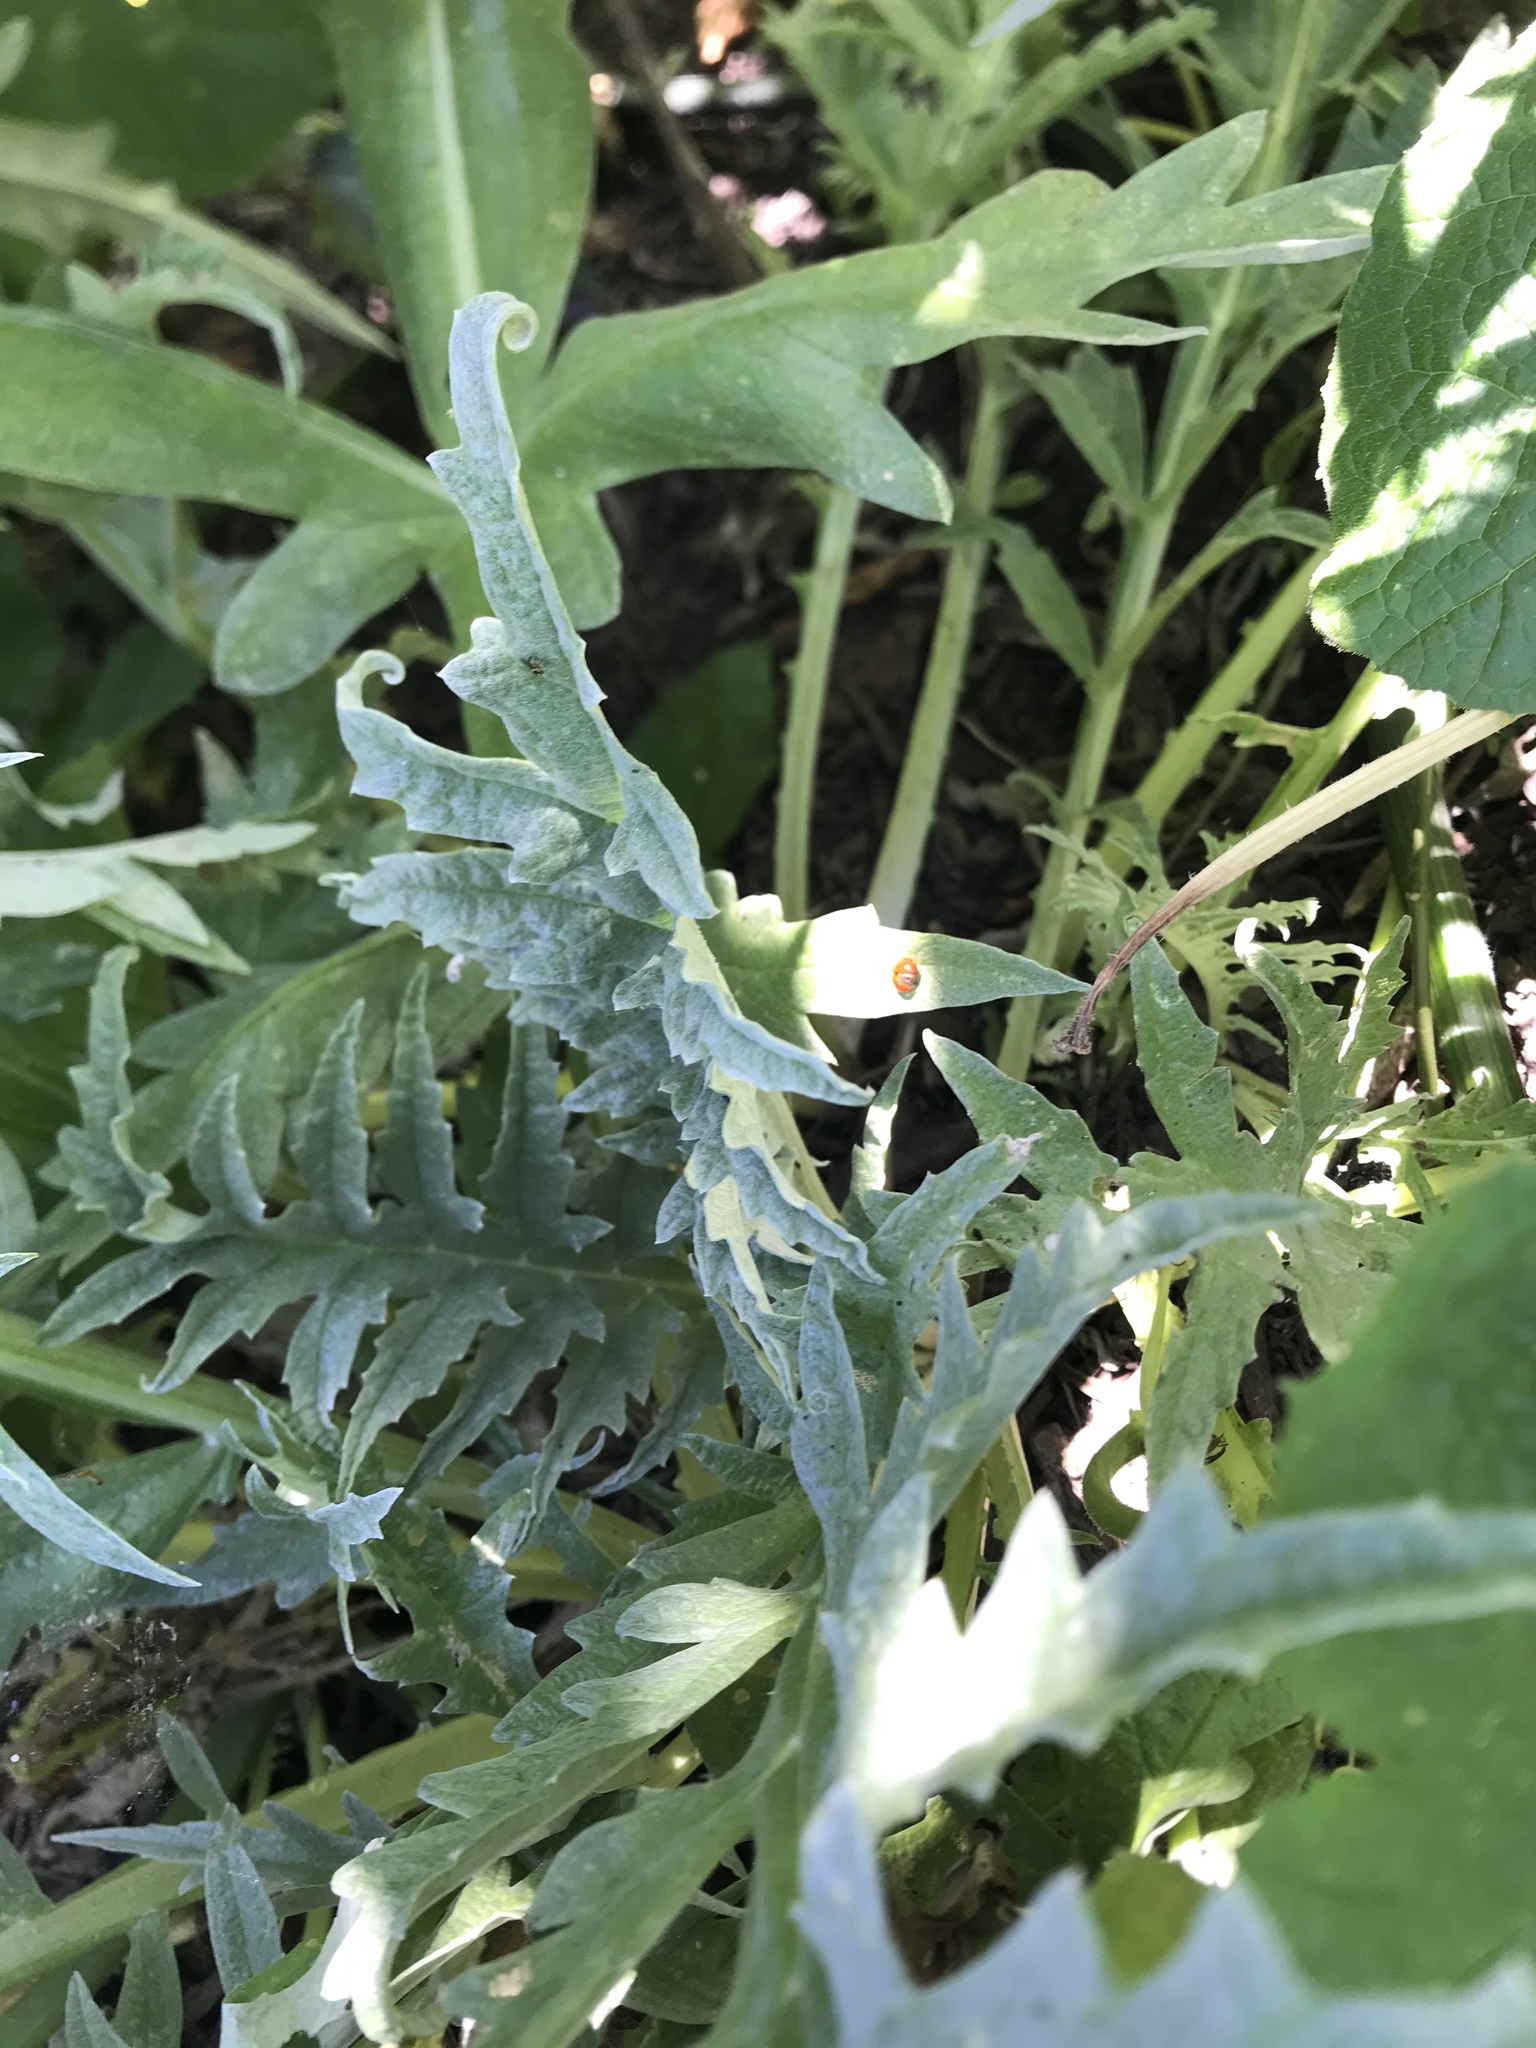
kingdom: Animalia
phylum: Arthropoda
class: Insecta
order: Coleoptera
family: Coccinellidae
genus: Cycloneda
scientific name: Cycloneda sanguinea
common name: Ladybird beetle
